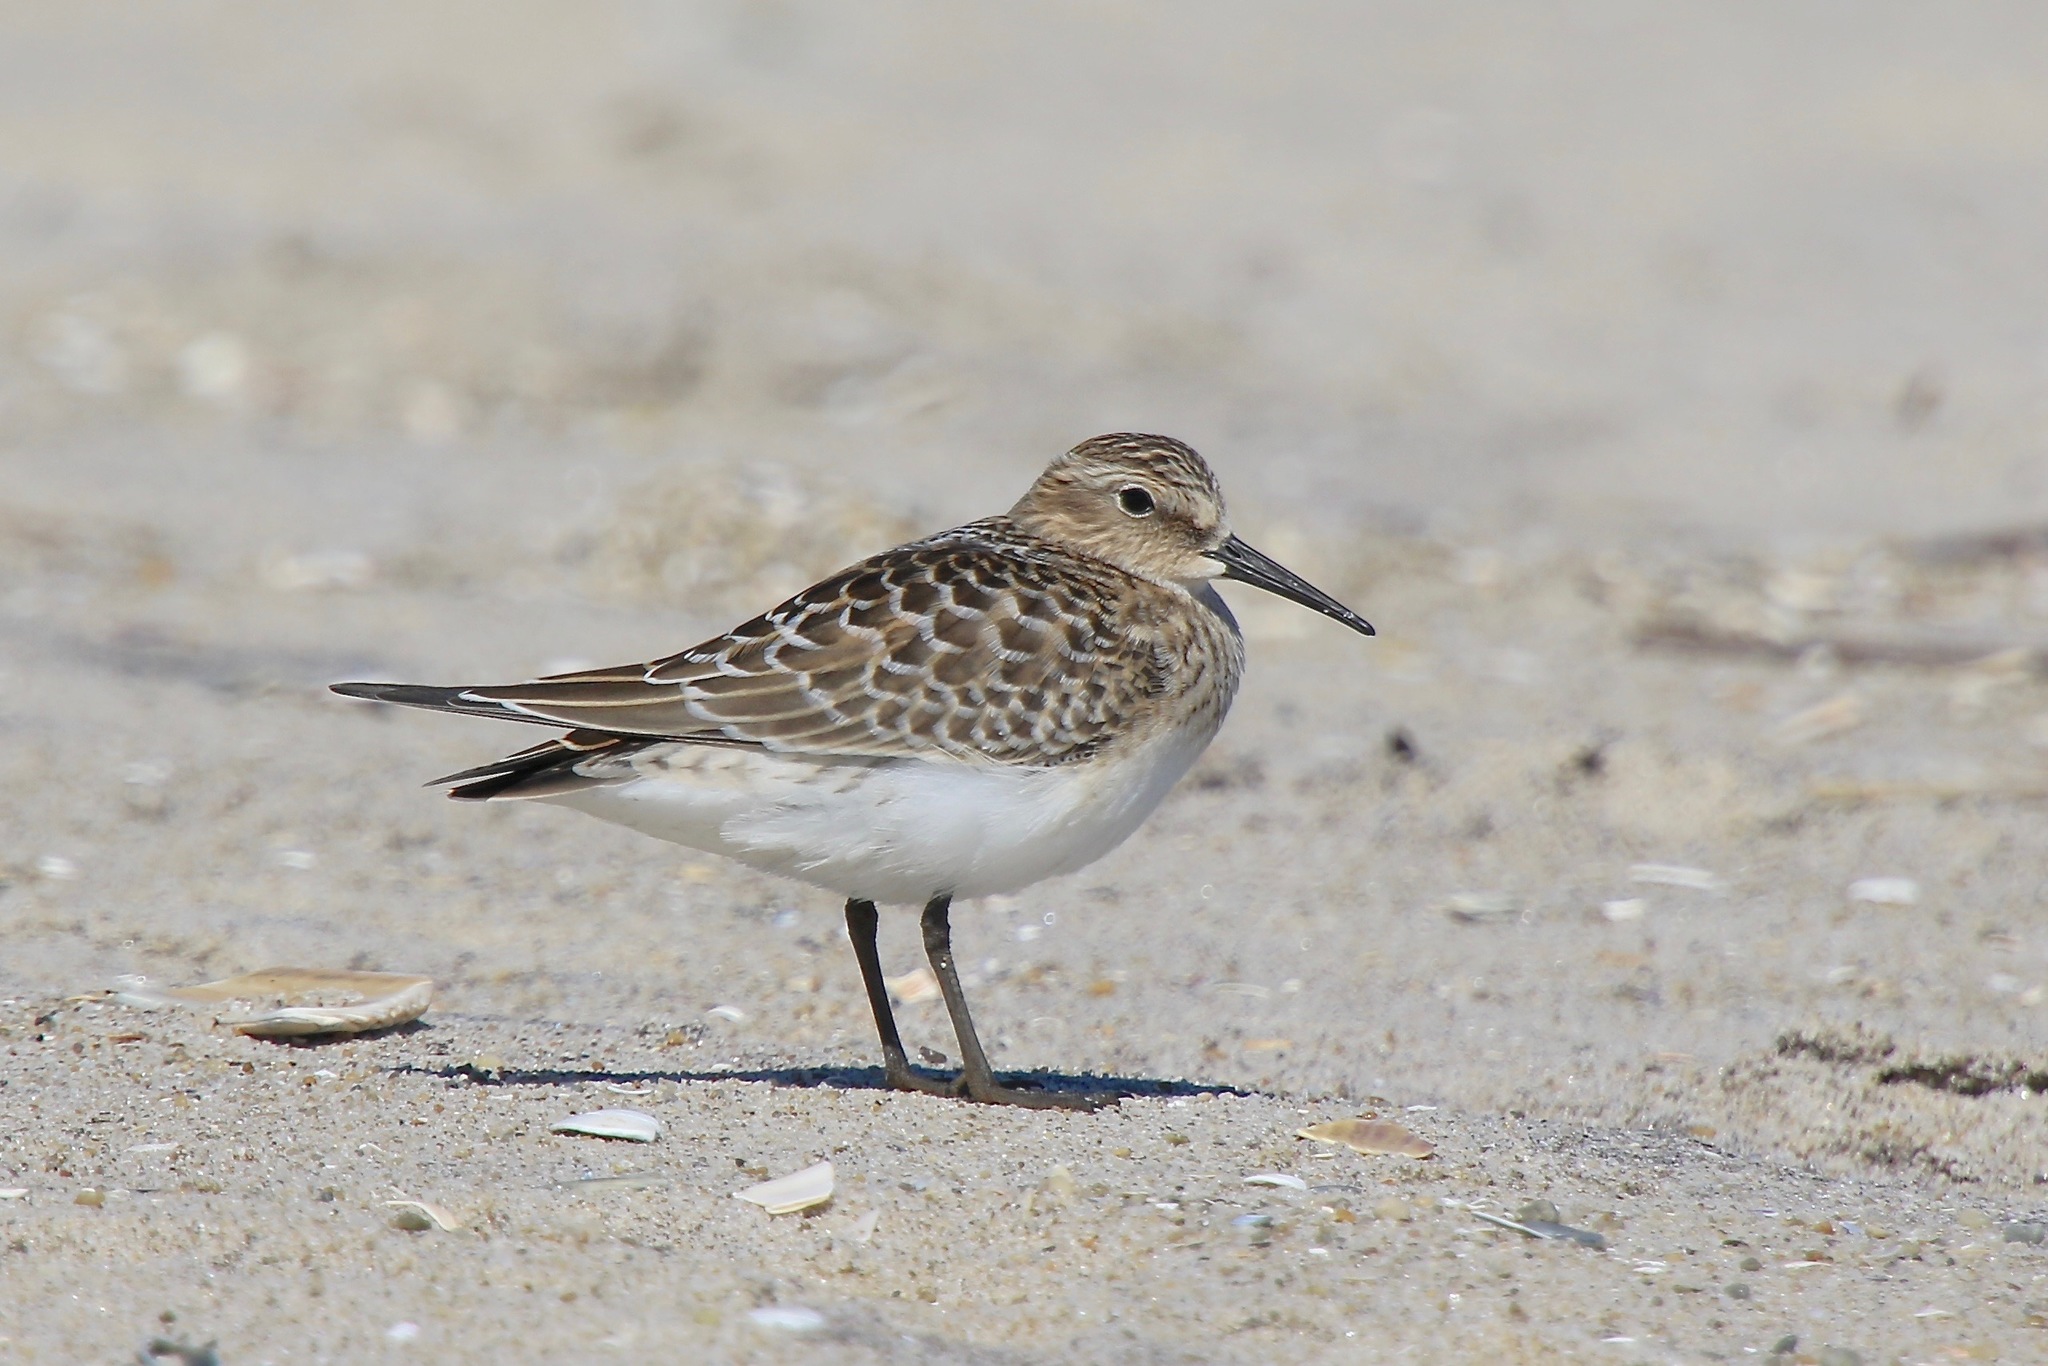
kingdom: Animalia
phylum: Chordata
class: Aves
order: Charadriiformes
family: Scolopacidae
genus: Calidris
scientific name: Calidris bairdii
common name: Baird's sandpiper
